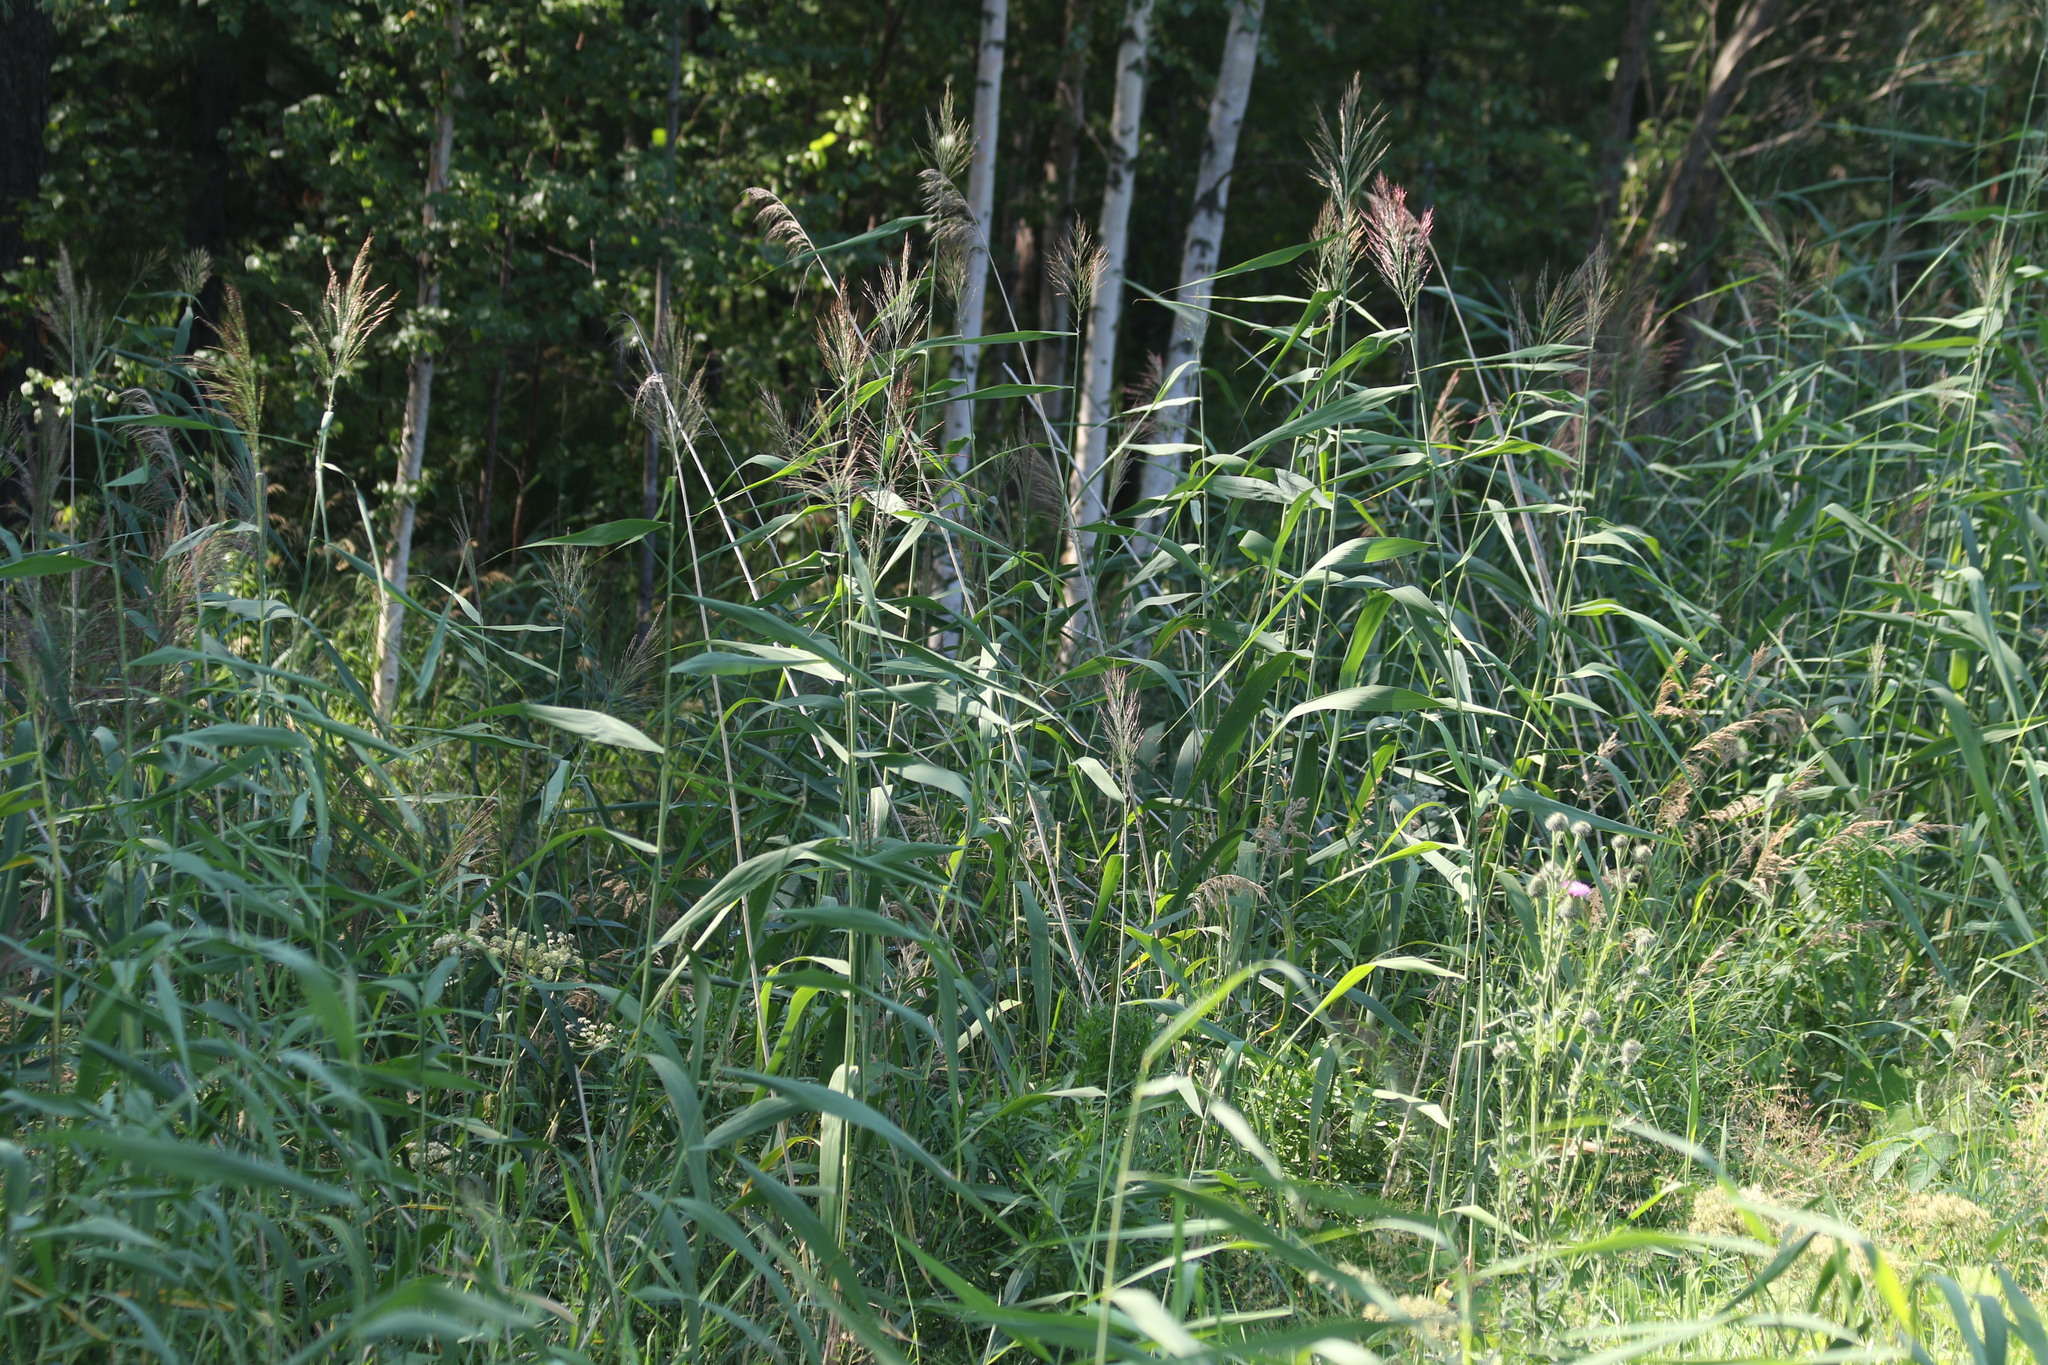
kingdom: Plantae
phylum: Tracheophyta
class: Liliopsida
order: Poales
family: Poaceae
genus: Phragmites
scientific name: Phragmites australis
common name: Common reed
